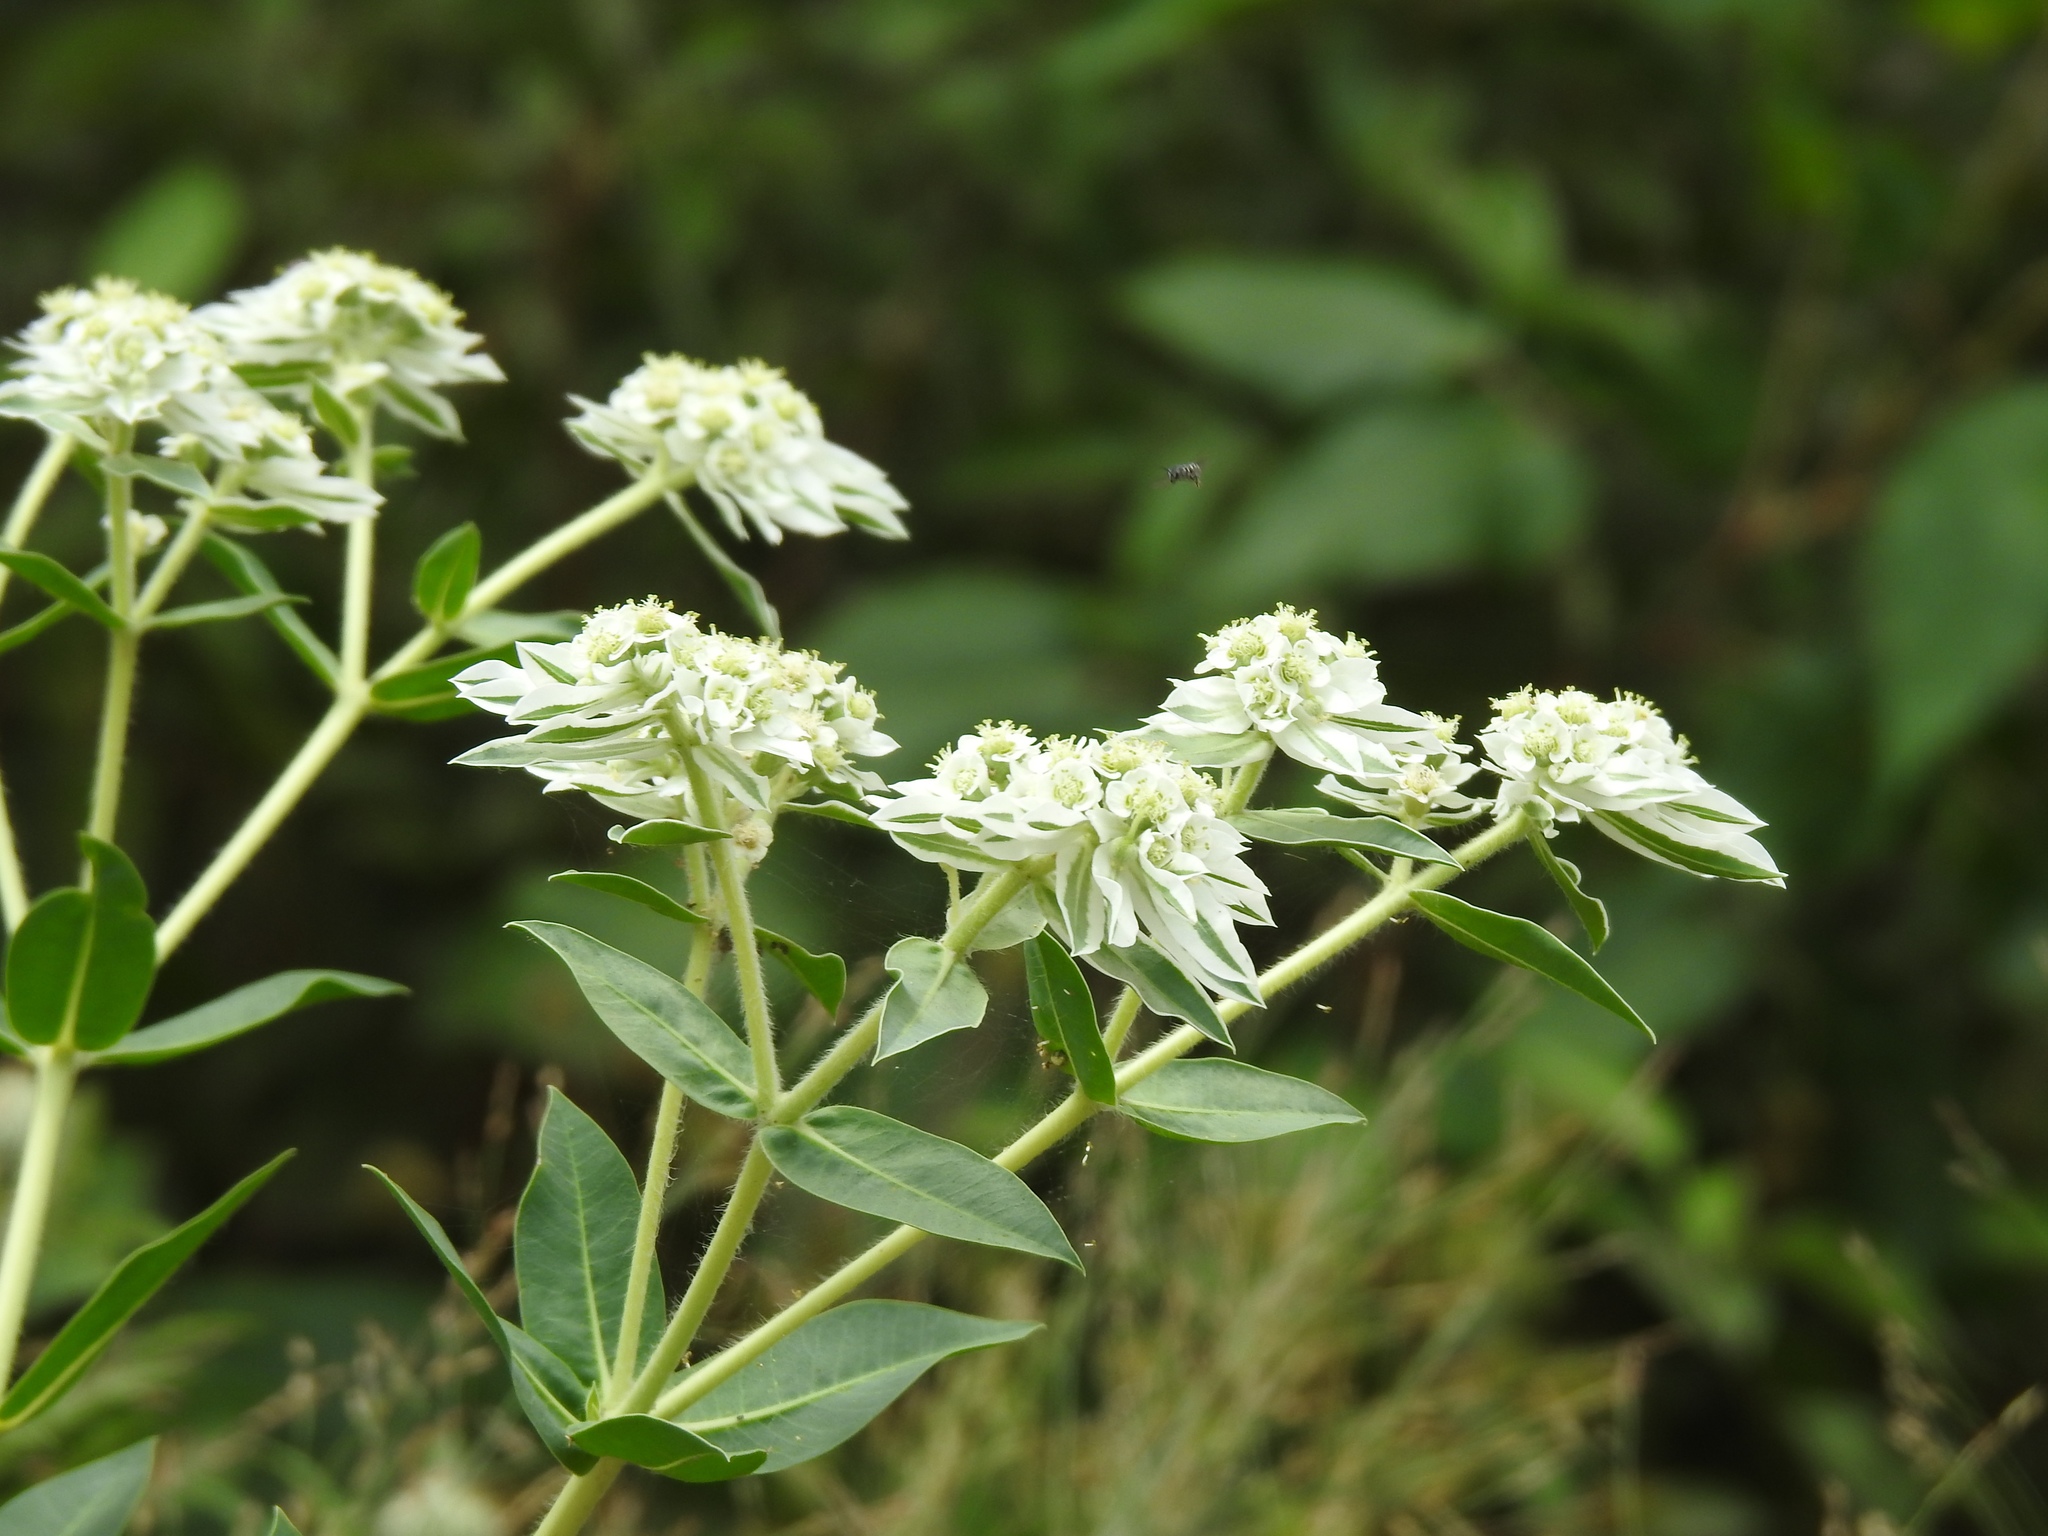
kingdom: Plantae
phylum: Tracheophyta
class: Magnoliopsida
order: Malpighiales
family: Euphorbiaceae
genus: Euphorbia
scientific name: Euphorbia marginata
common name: Ghostweed
